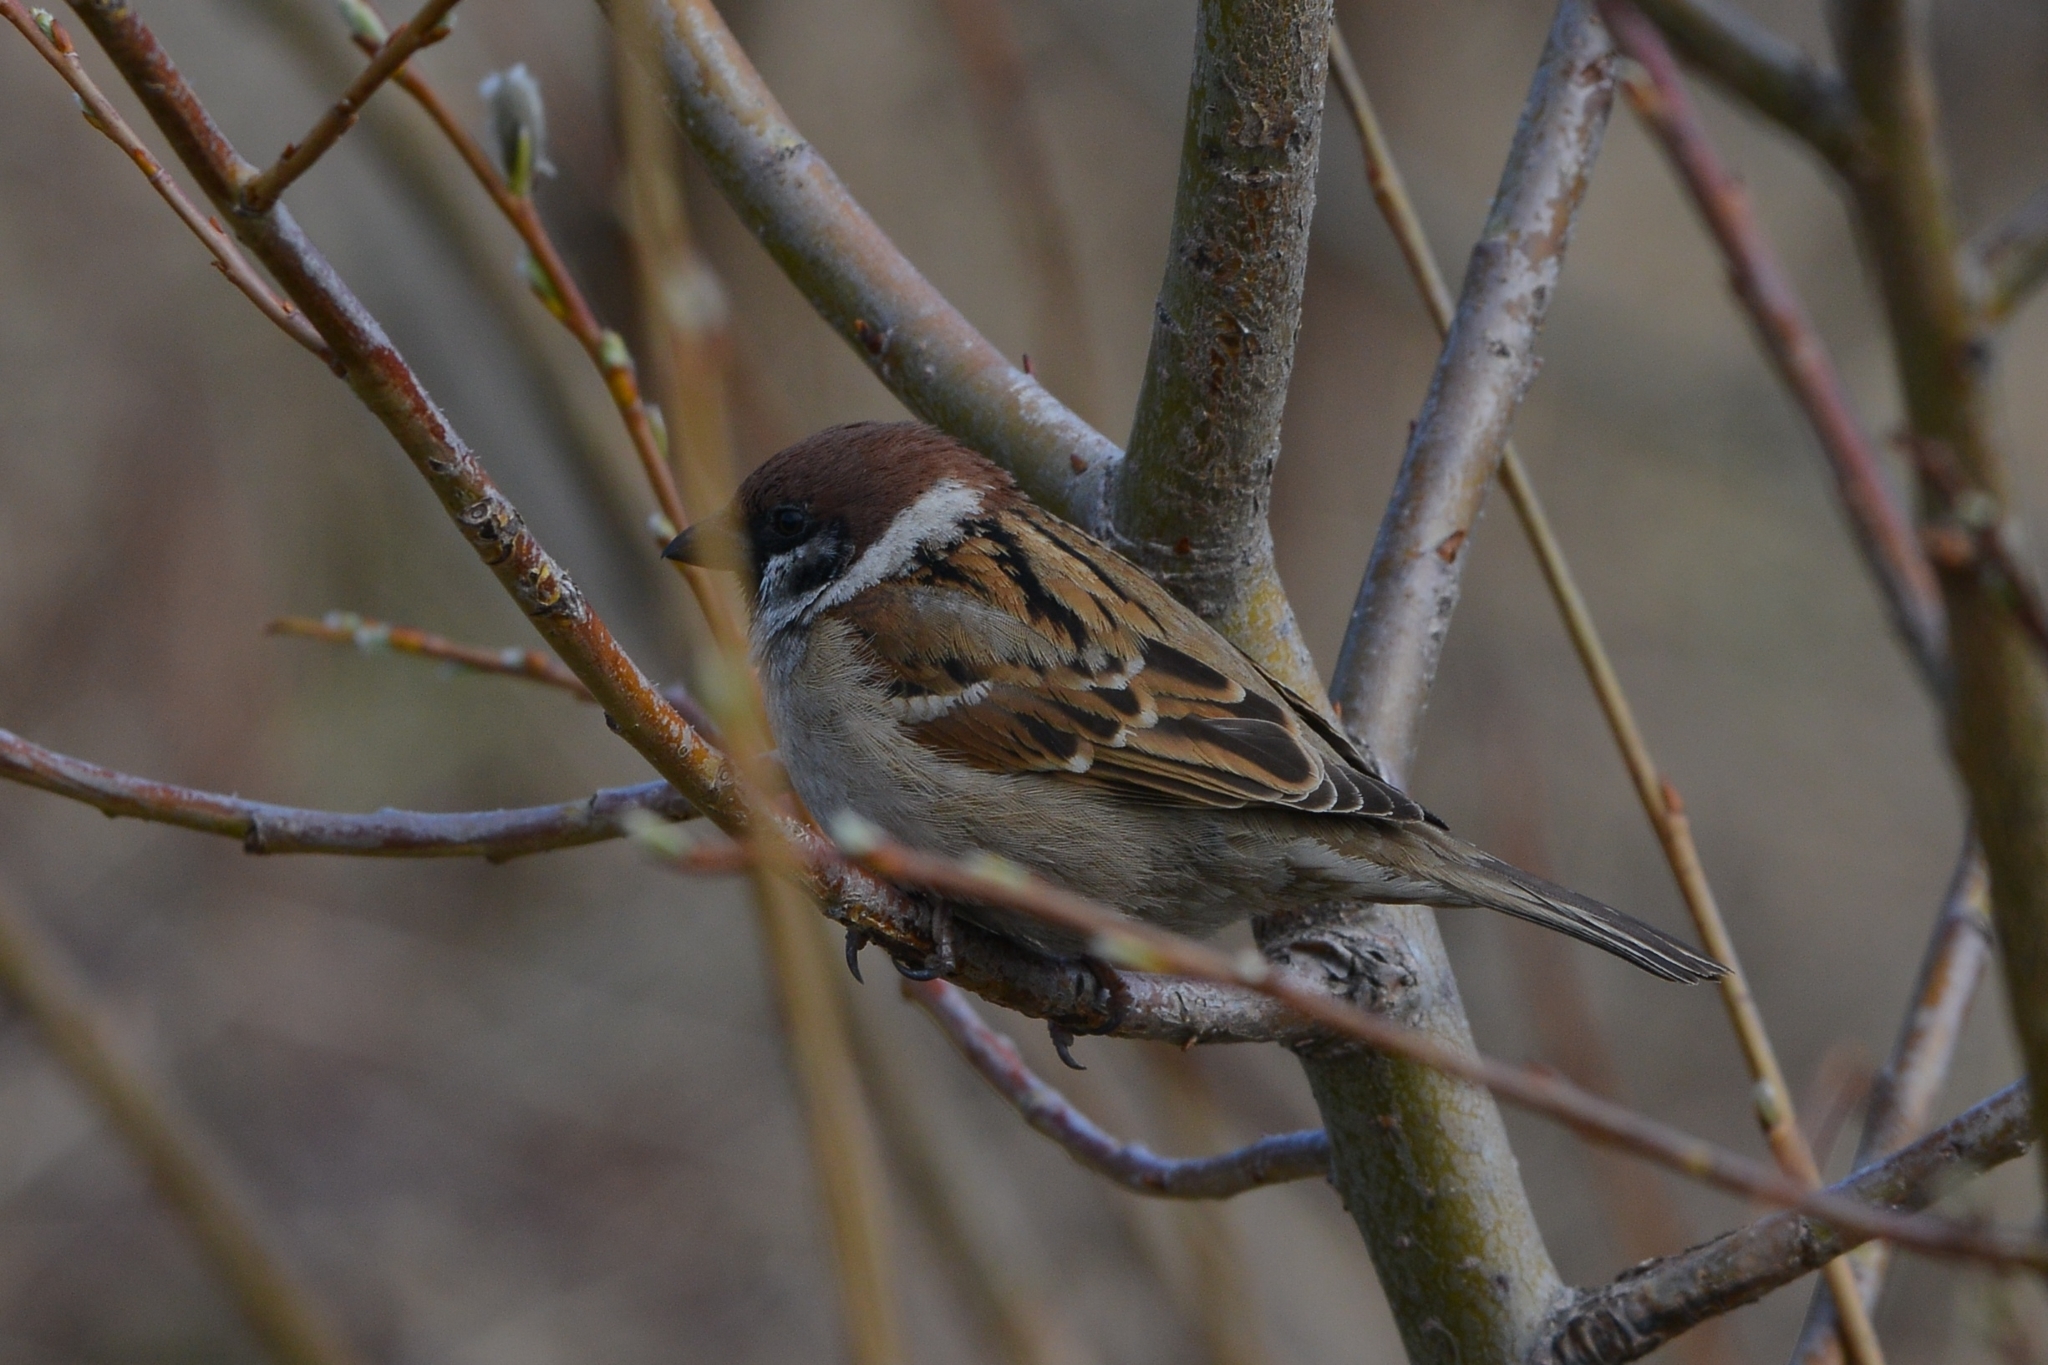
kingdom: Animalia
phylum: Chordata
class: Aves
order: Passeriformes
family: Passeridae
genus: Passer
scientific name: Passer montanus
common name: Eurasian tree sparrow
